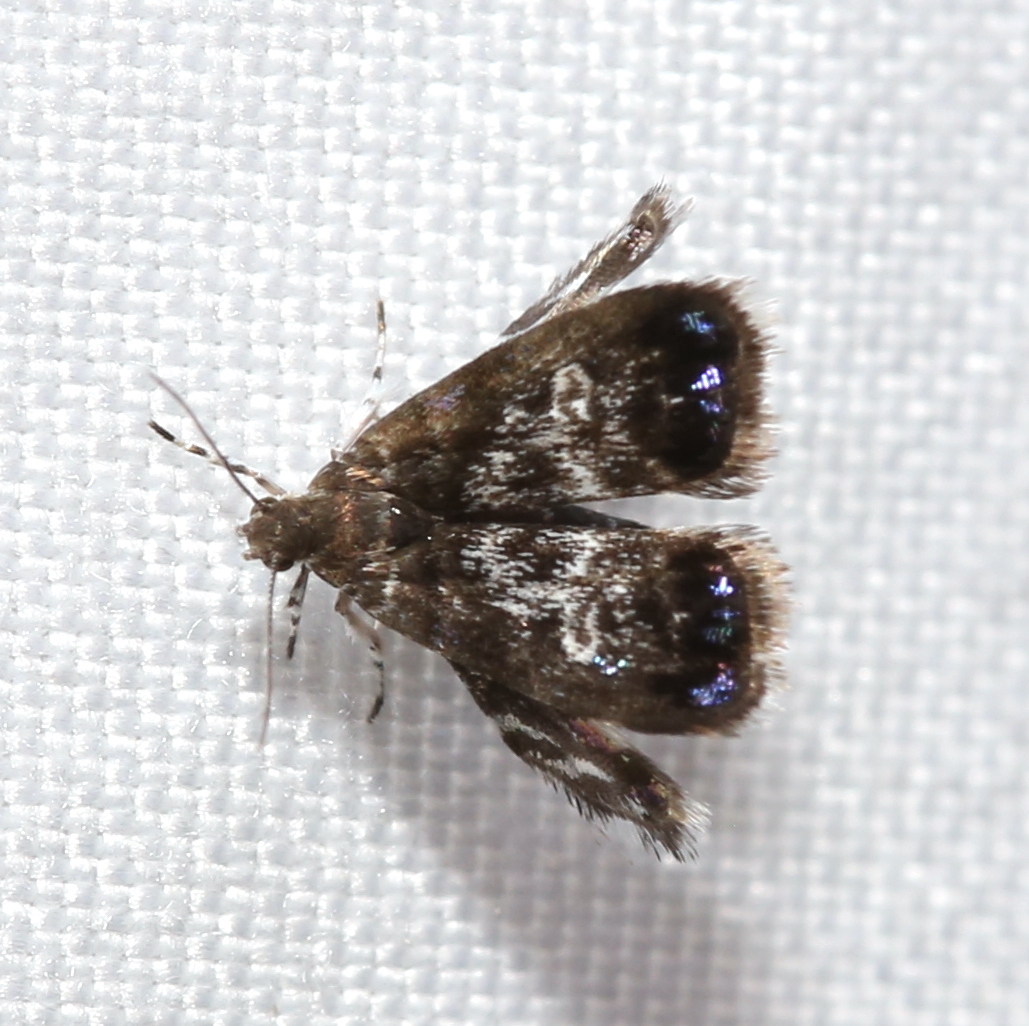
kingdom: Animalia
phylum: Arthropoda
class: Insecta
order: Lepidoptera
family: Choreutidae
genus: Brenthia
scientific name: Brenthia pavonacella
